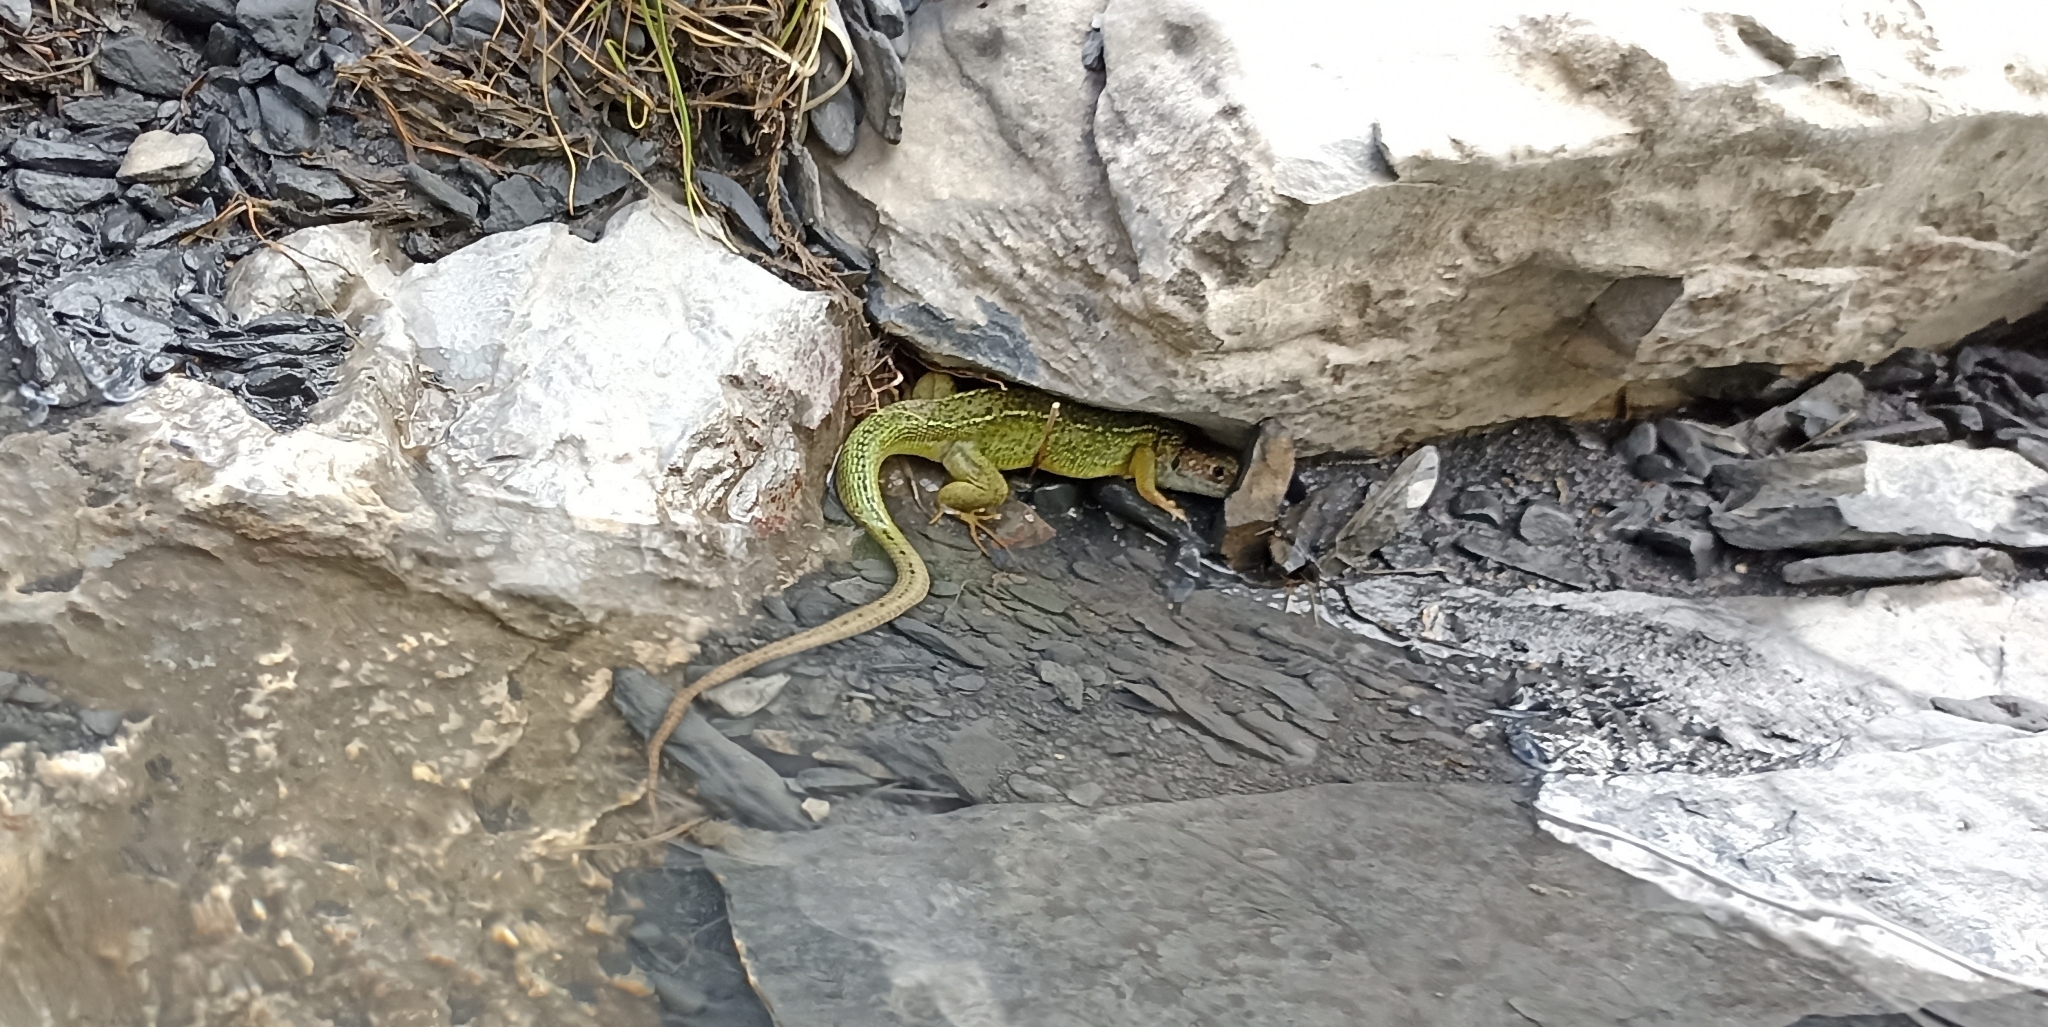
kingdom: Animalia
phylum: Chordata
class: Squamata
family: Lacertidae
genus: Lacerta
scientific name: Lacerta bilineata
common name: Western green lizard
